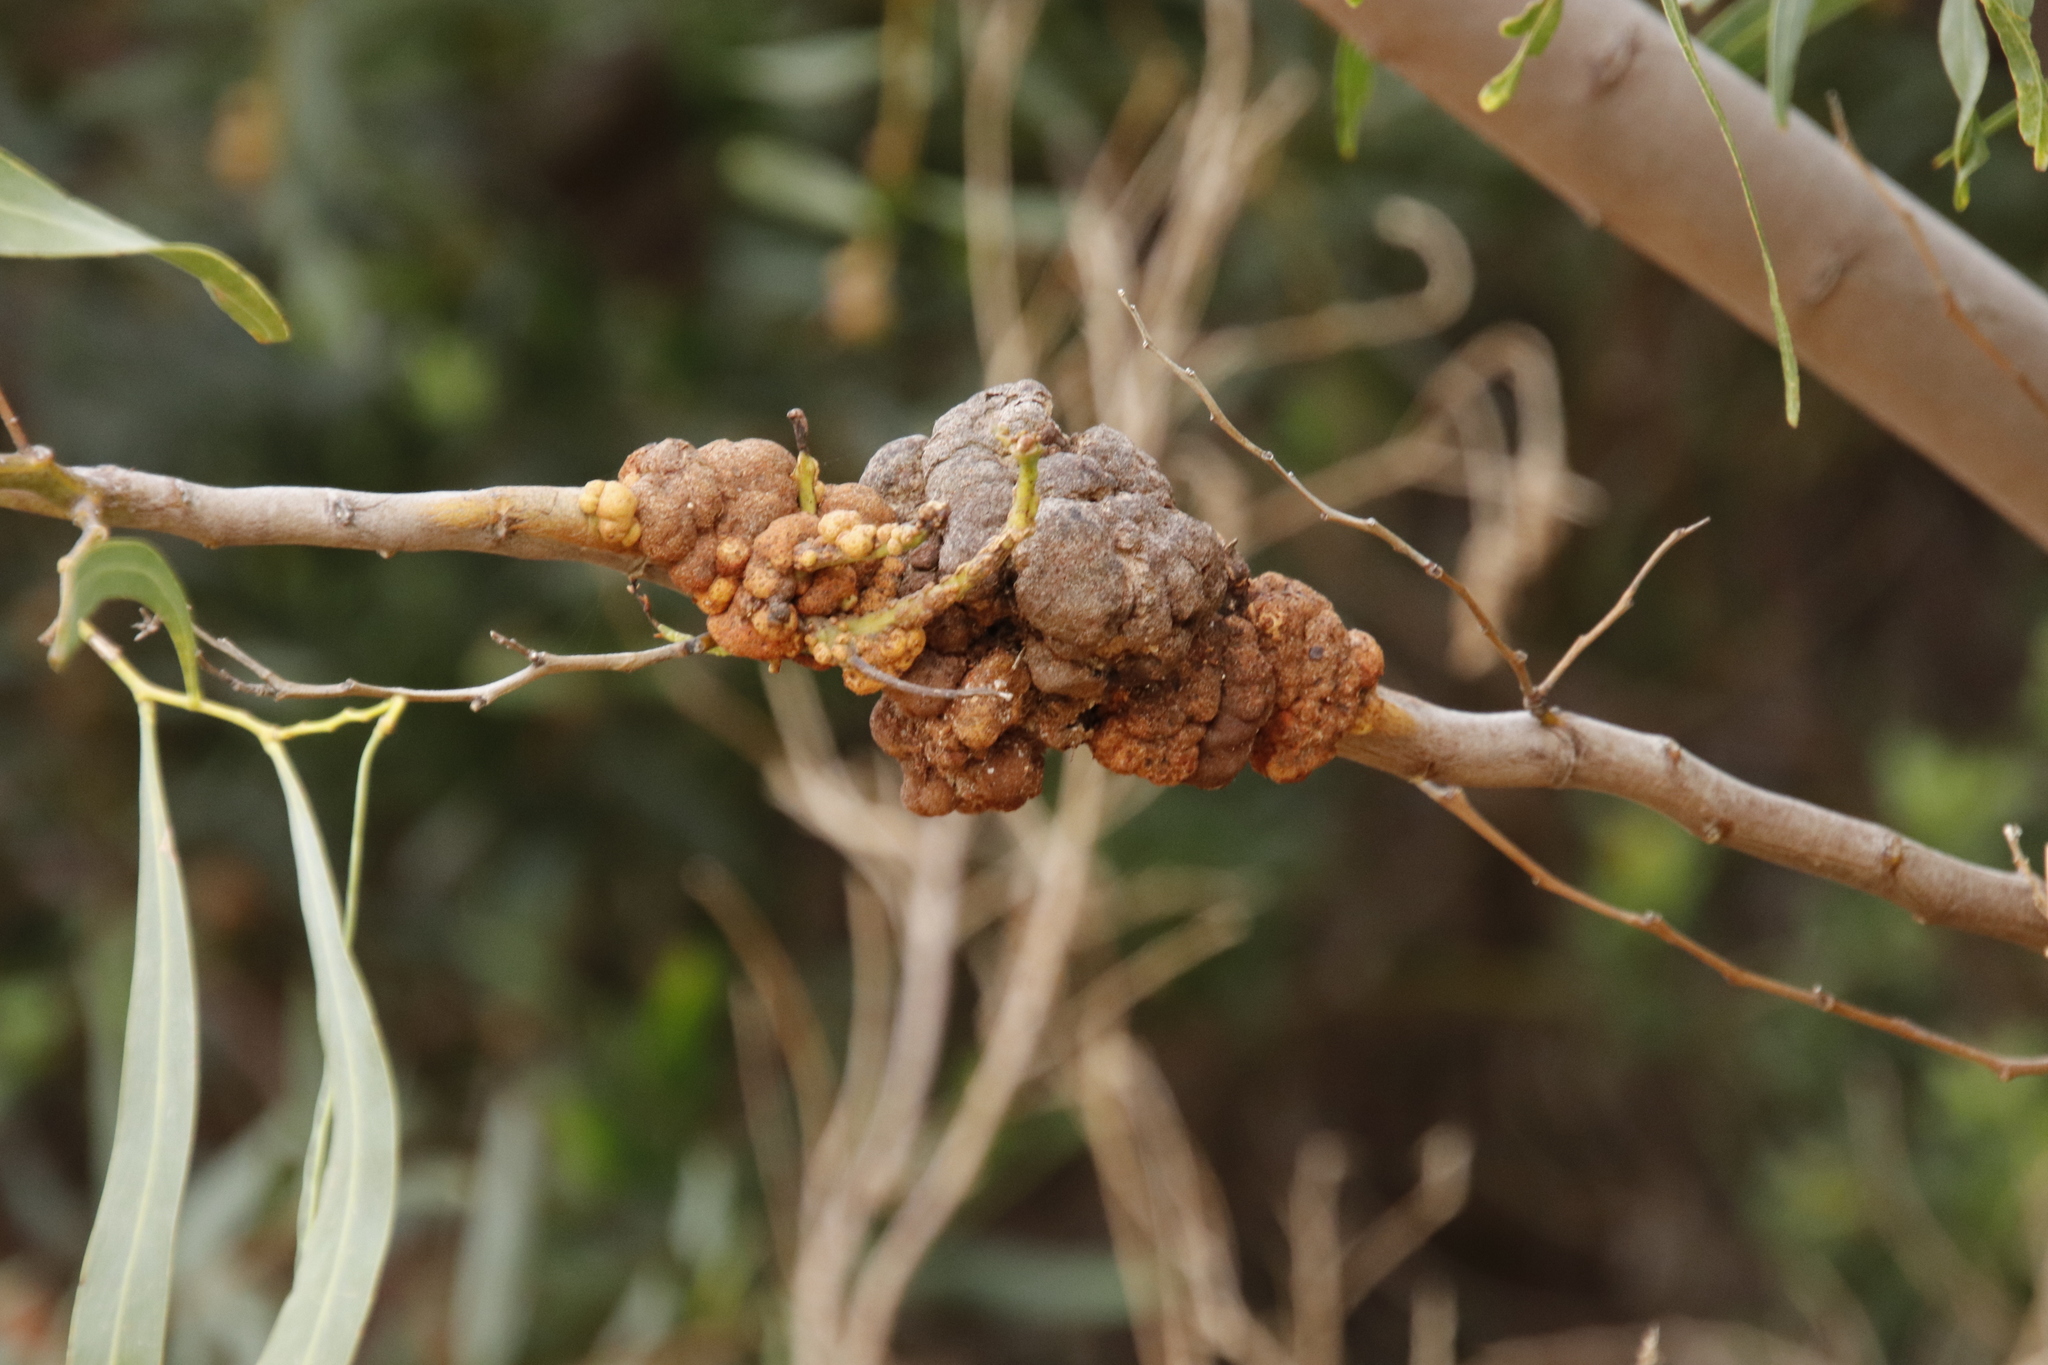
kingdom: Plantae
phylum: Tracheophyta
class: Magnoliopsida
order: Fabales
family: Fabaceae
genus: Acacia
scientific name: Acacia saligna
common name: Orange wattle
